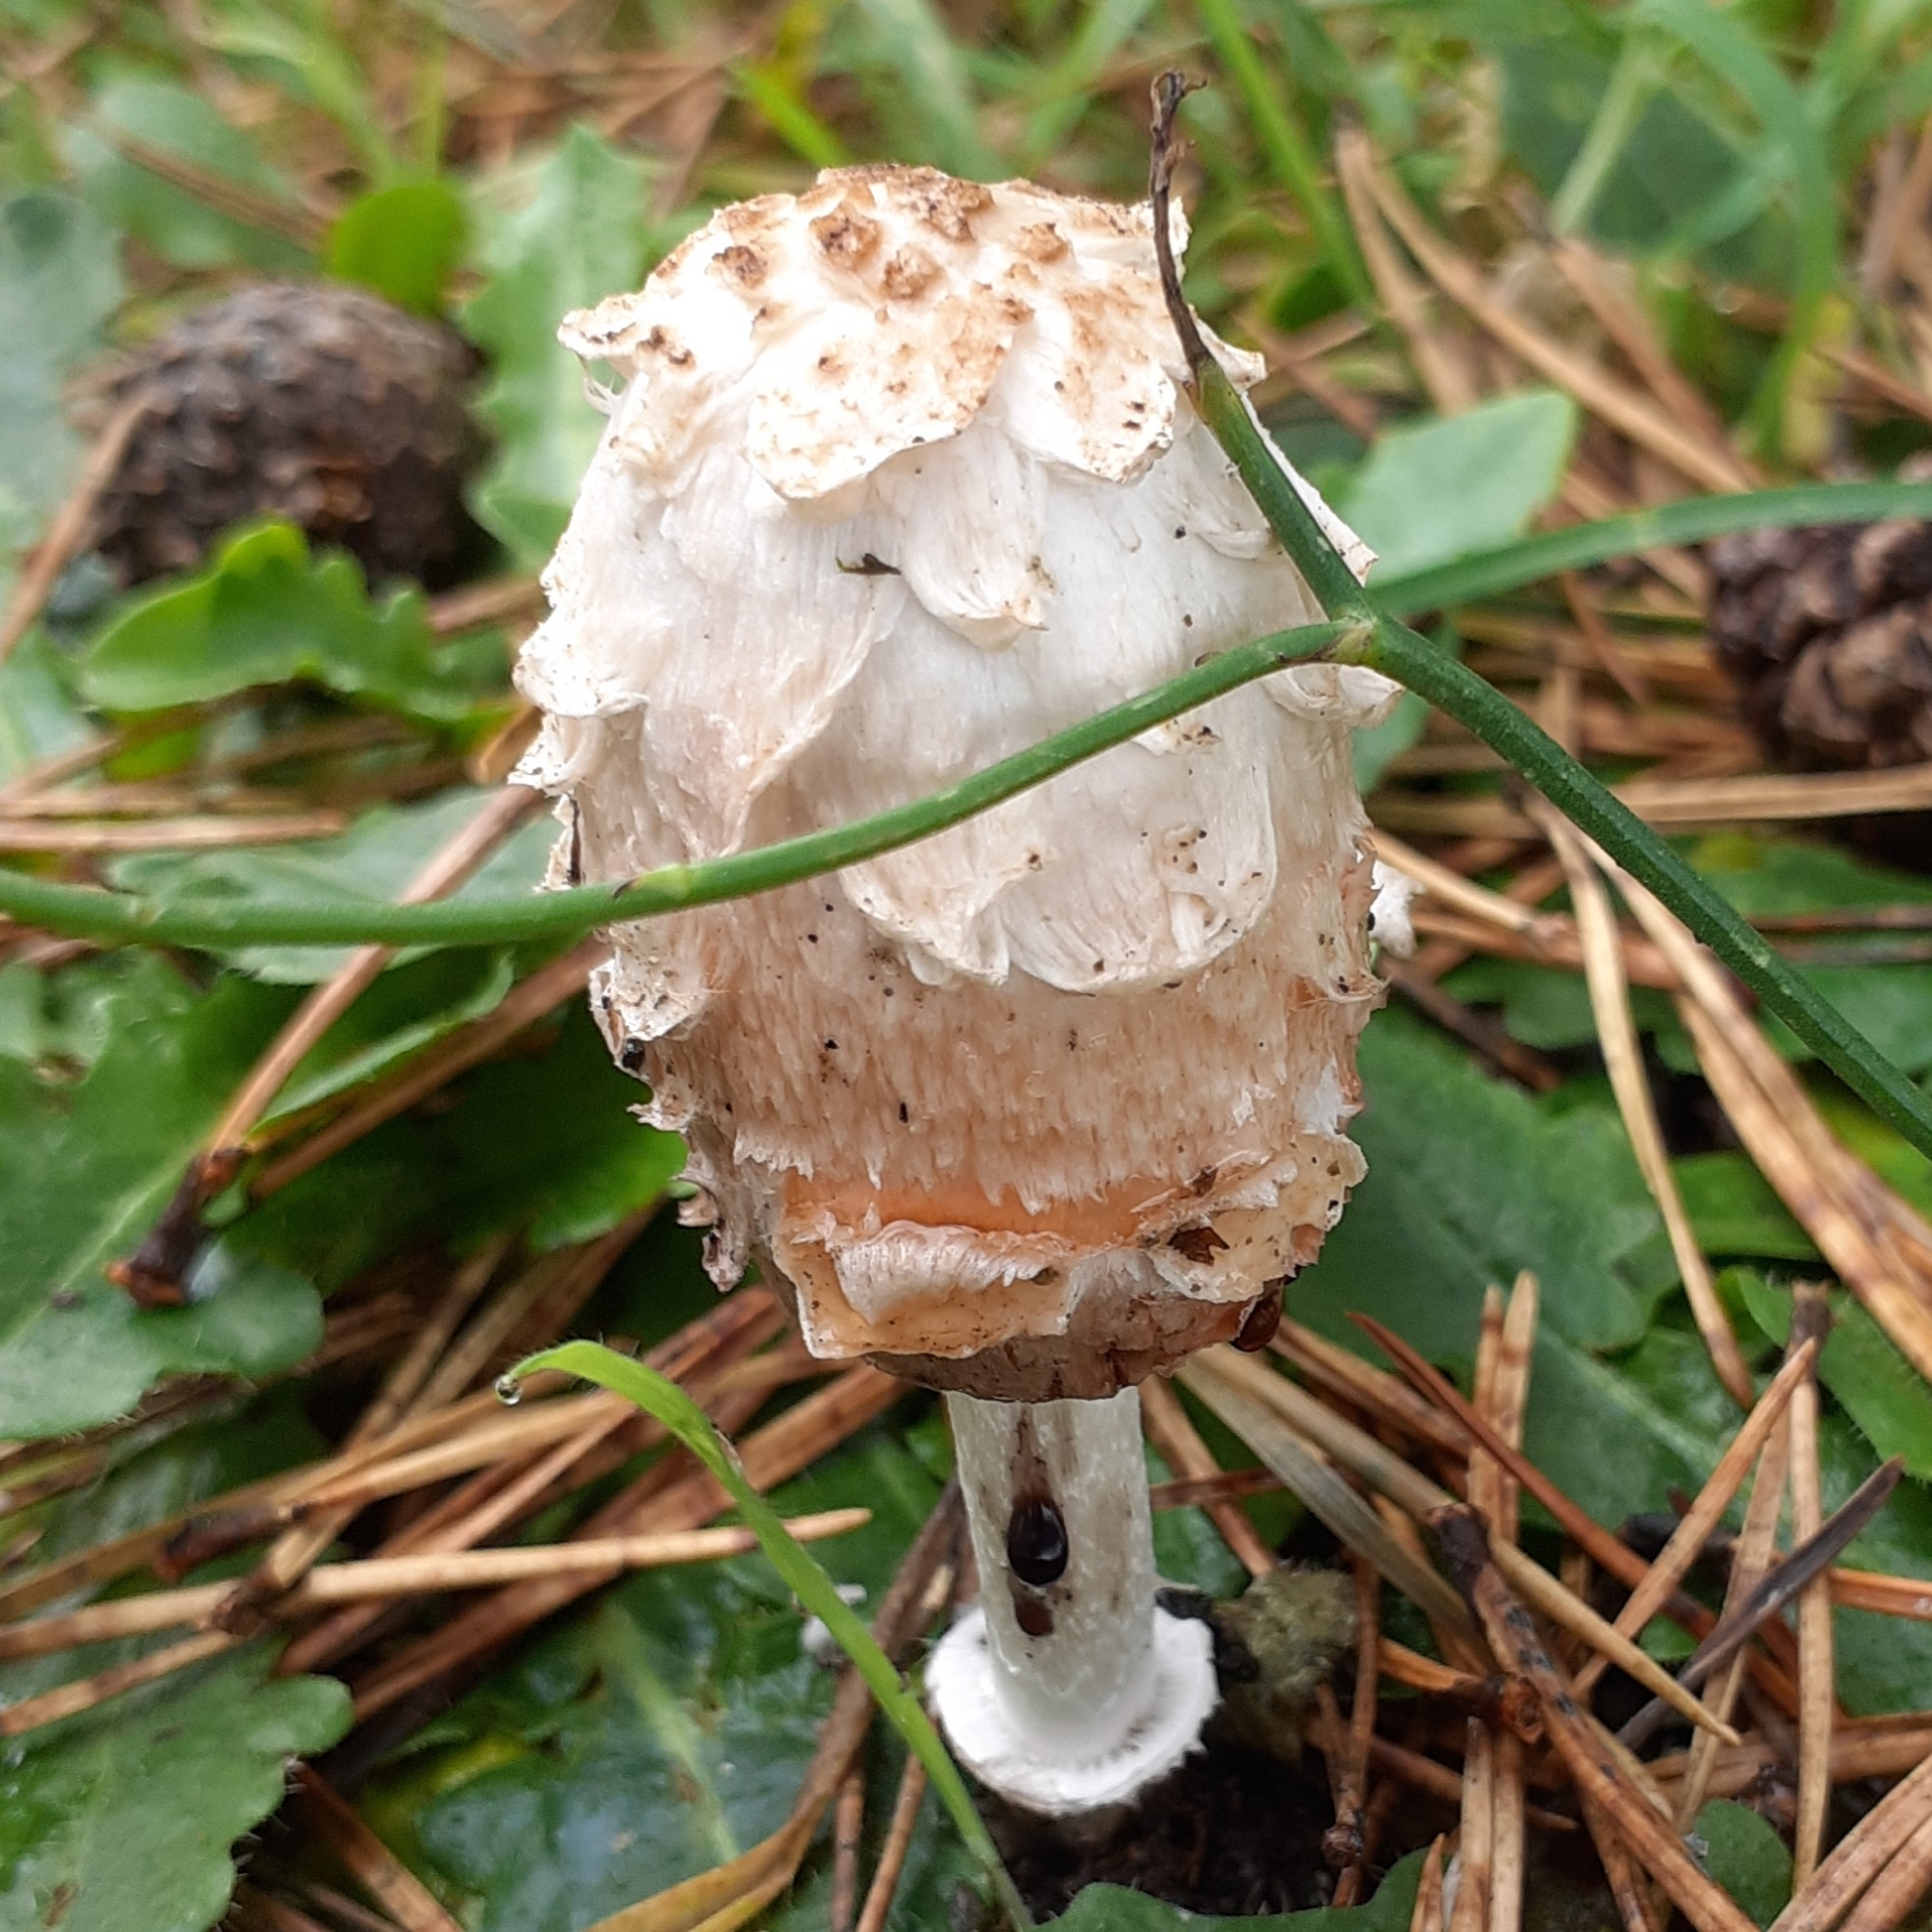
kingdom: Fungi
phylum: Basidiomycota
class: Agaricomycetes
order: Agaricales
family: Agaricaceae
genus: Coprinus
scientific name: Coprinus comatus
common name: Lawyer's wig
